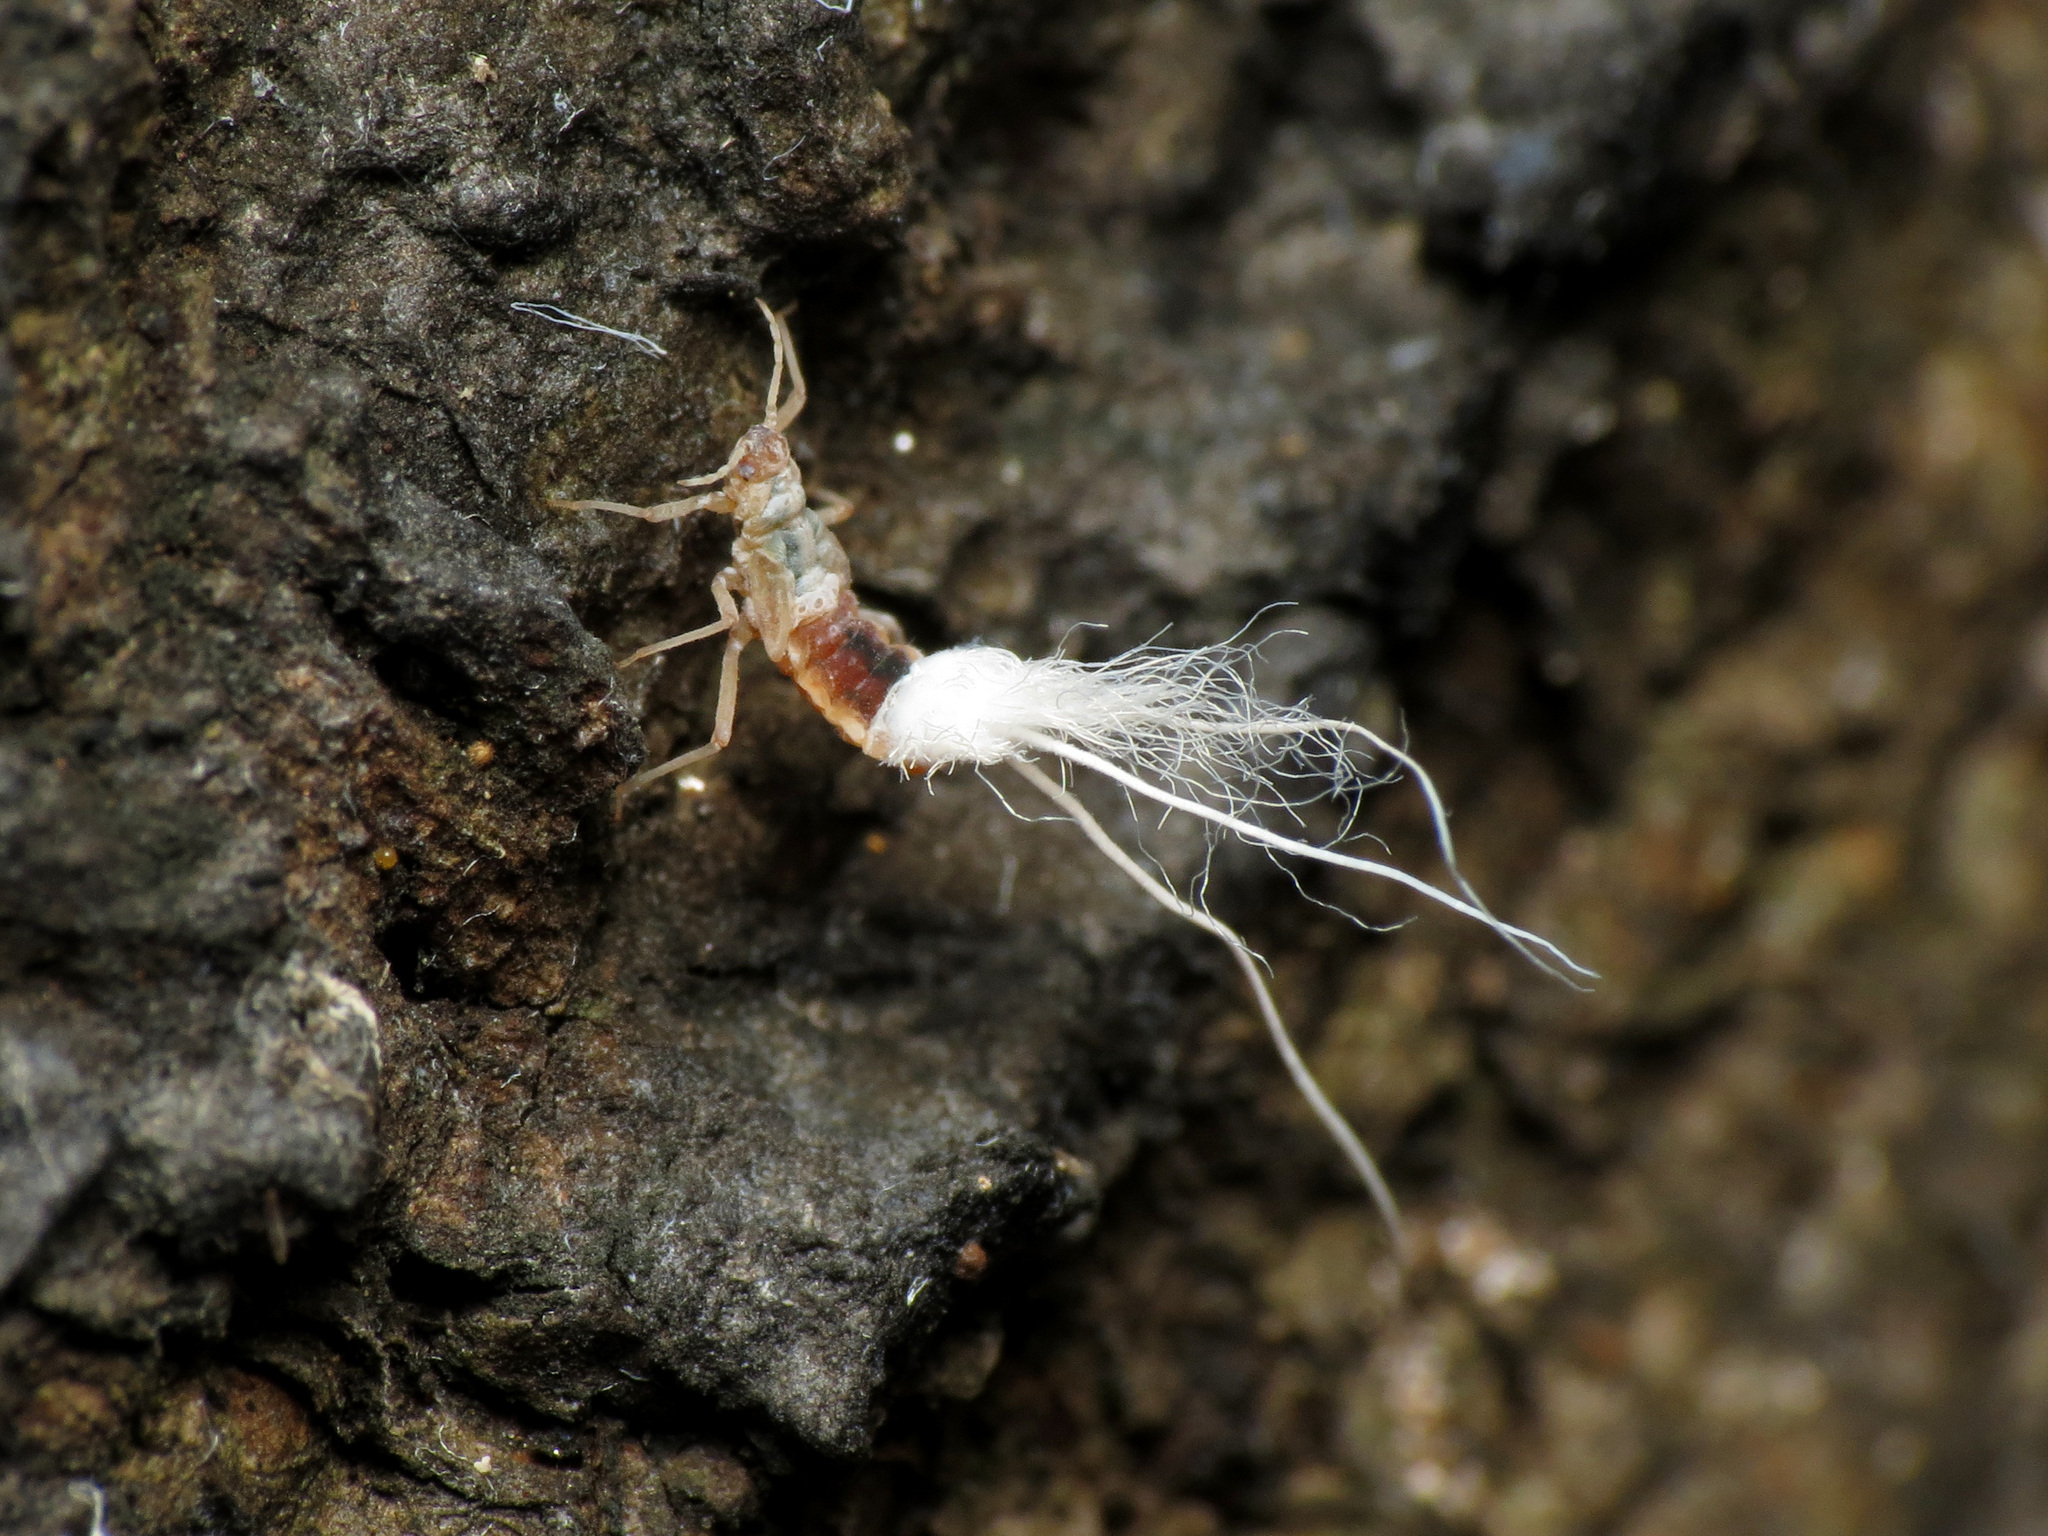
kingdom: Animalia
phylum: Arthropoda
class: Insecta
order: Hemiptera
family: Aphididae
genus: Grylloprociphilus
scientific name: Grylloprociphilus imbricator
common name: Beech blight aphid
